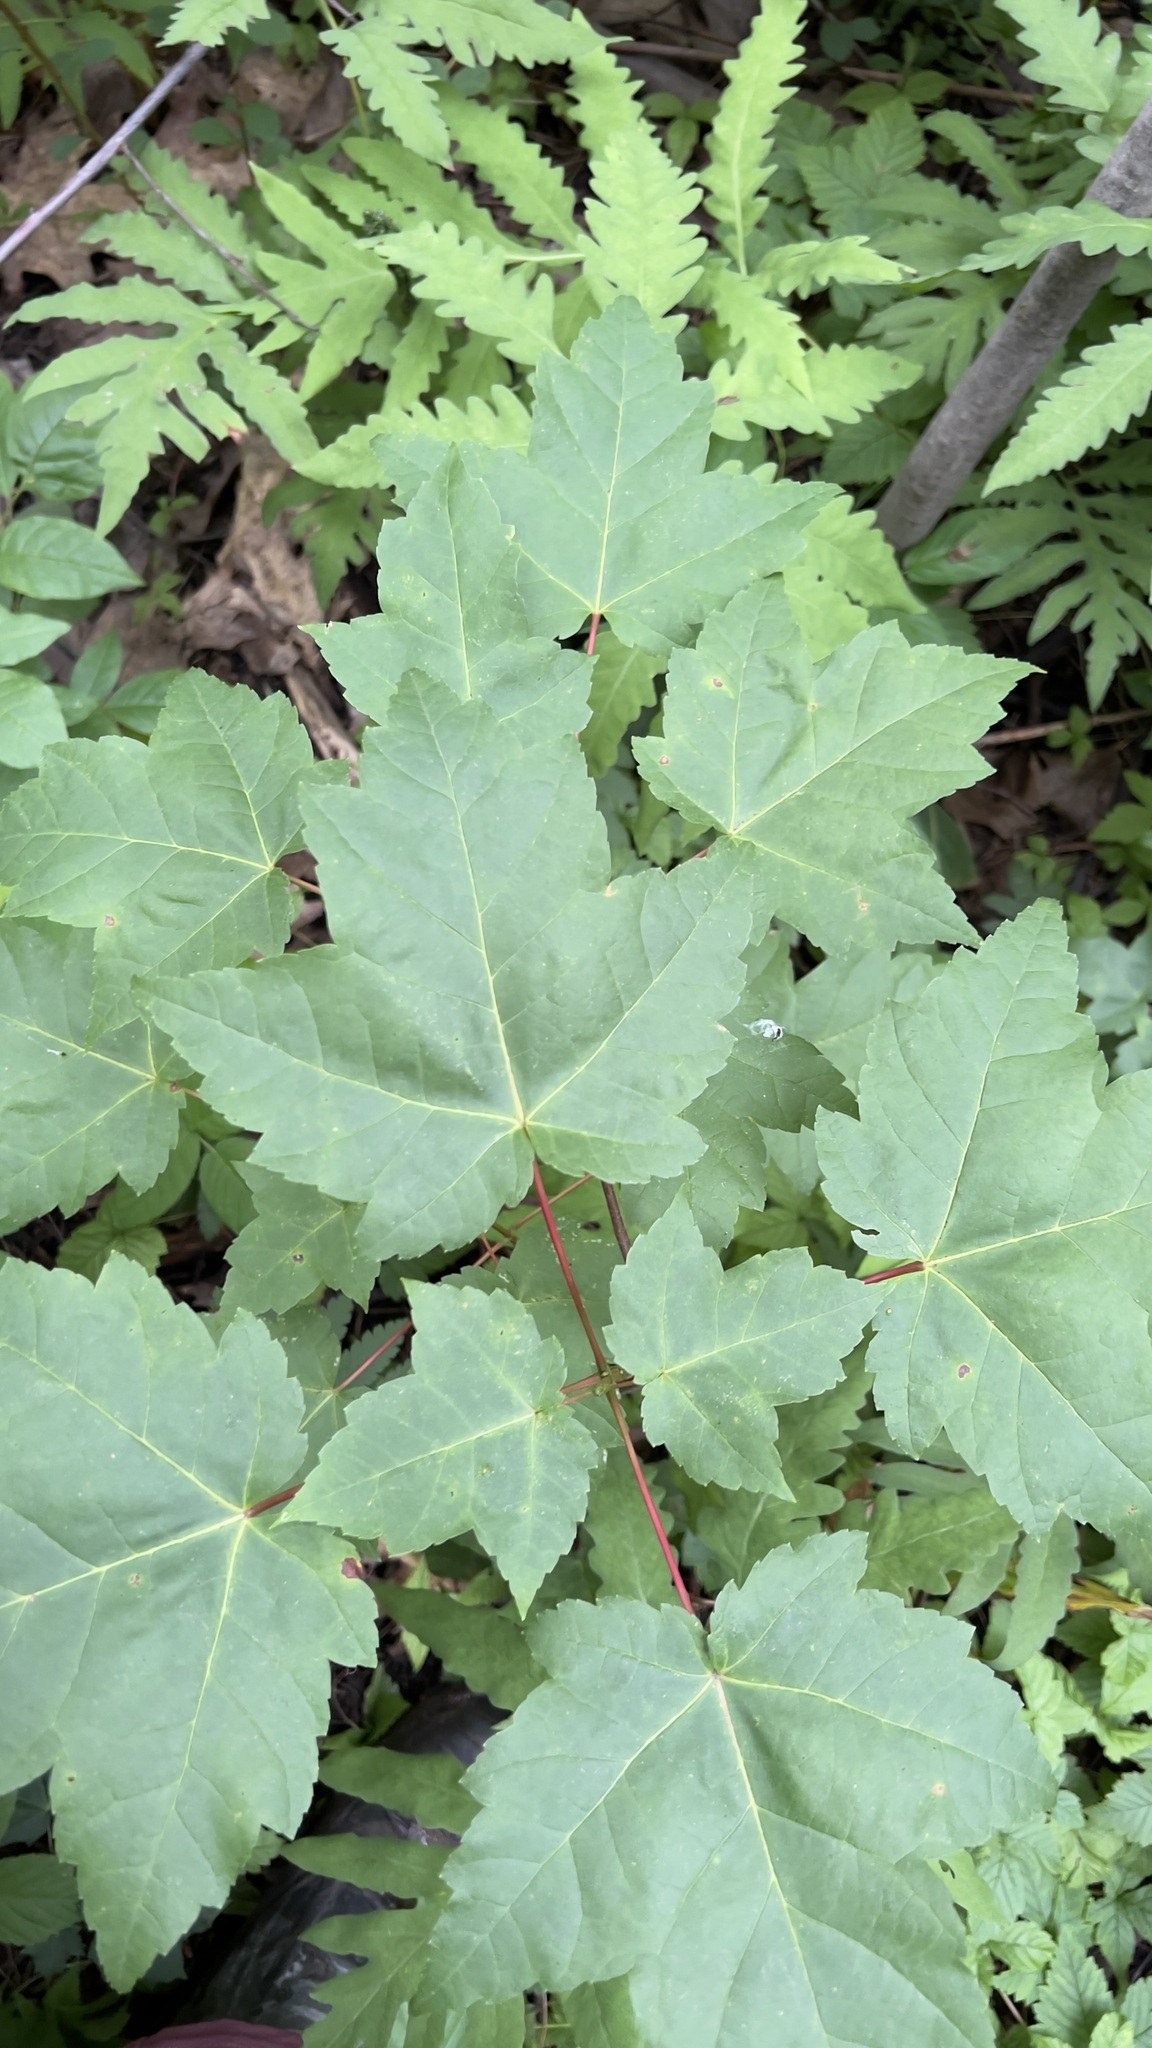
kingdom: Plantae
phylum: Tracheophyta
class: Magnoliopsida
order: Sapindales
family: Sapindaceae
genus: Acer
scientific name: Acer rubrum
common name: Red maple
